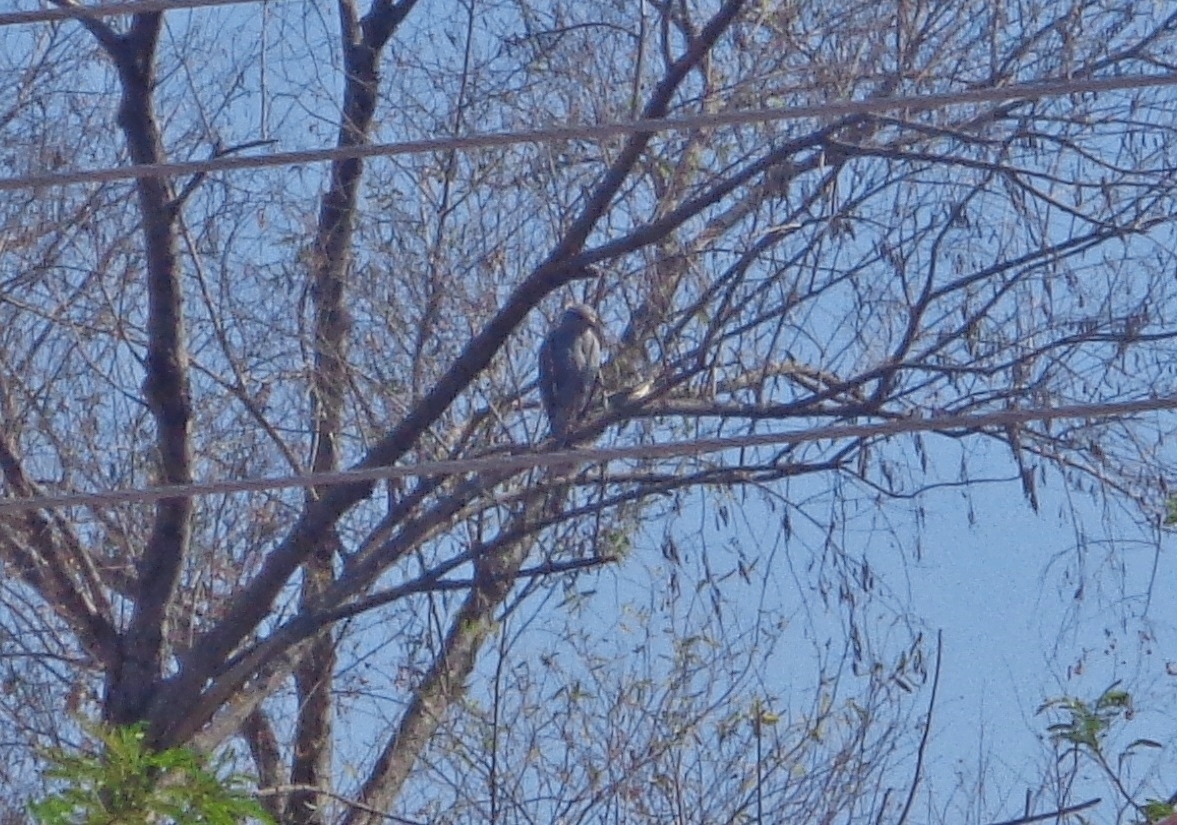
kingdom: Animalia
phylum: Chordata
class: Aves
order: Accipitriformes
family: Accipitridae
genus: Buteo
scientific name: Buteo nitidus
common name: Grey-lined hawk
